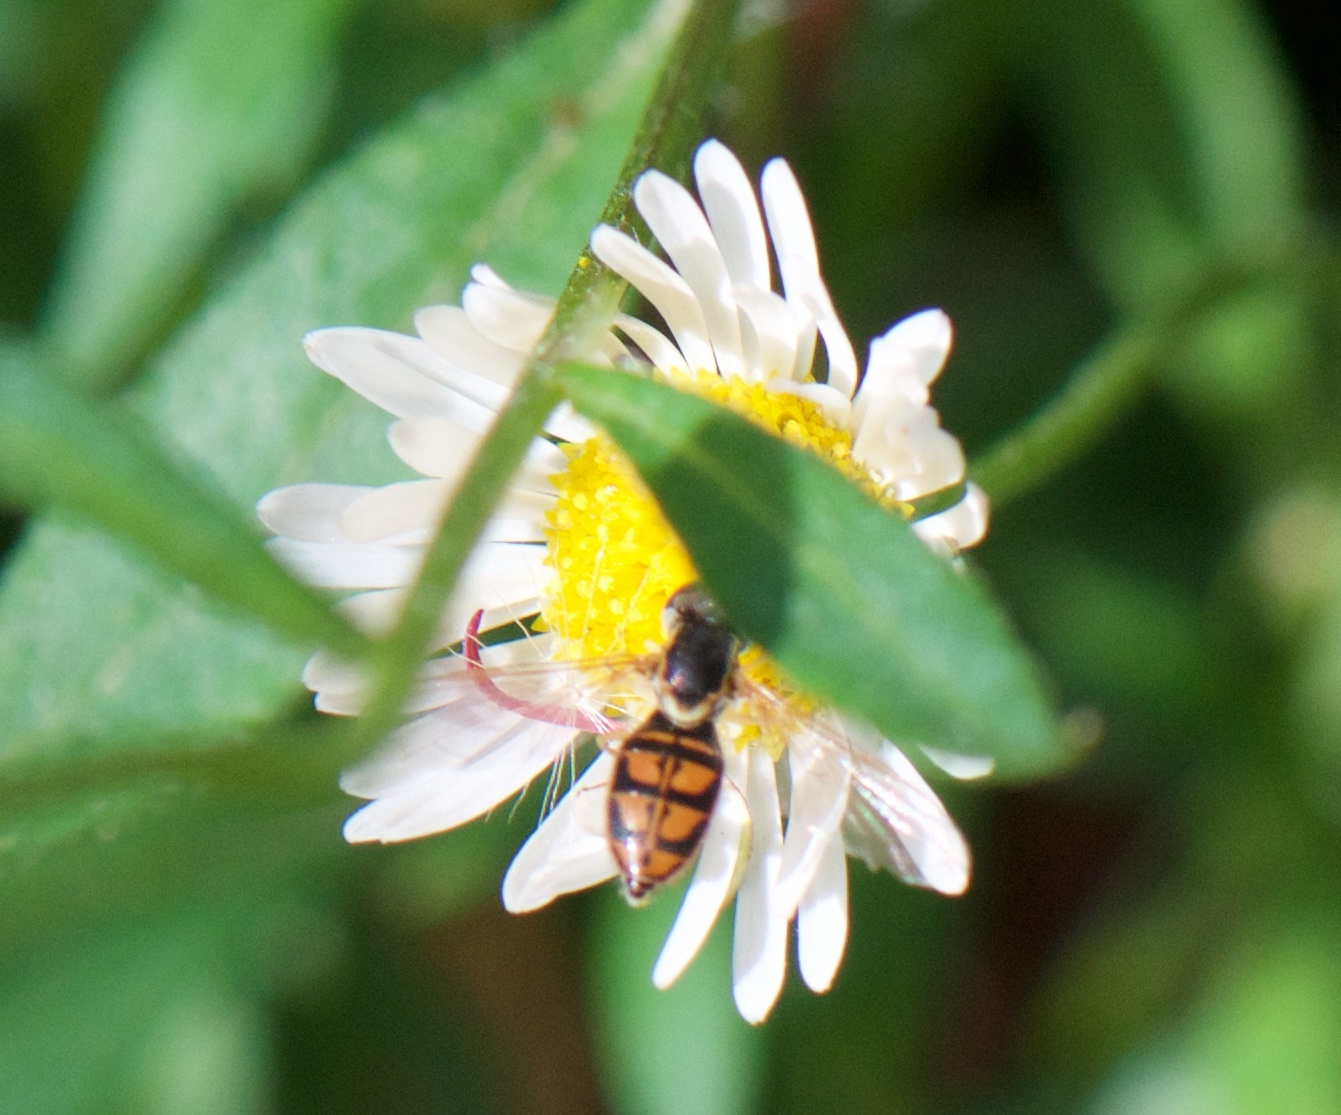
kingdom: Animalia
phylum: Arthropoda
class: Insecta
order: Diptera
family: Syrphidae
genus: Toxomerus
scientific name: Toxomerus marginatus
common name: Syrphid fly
